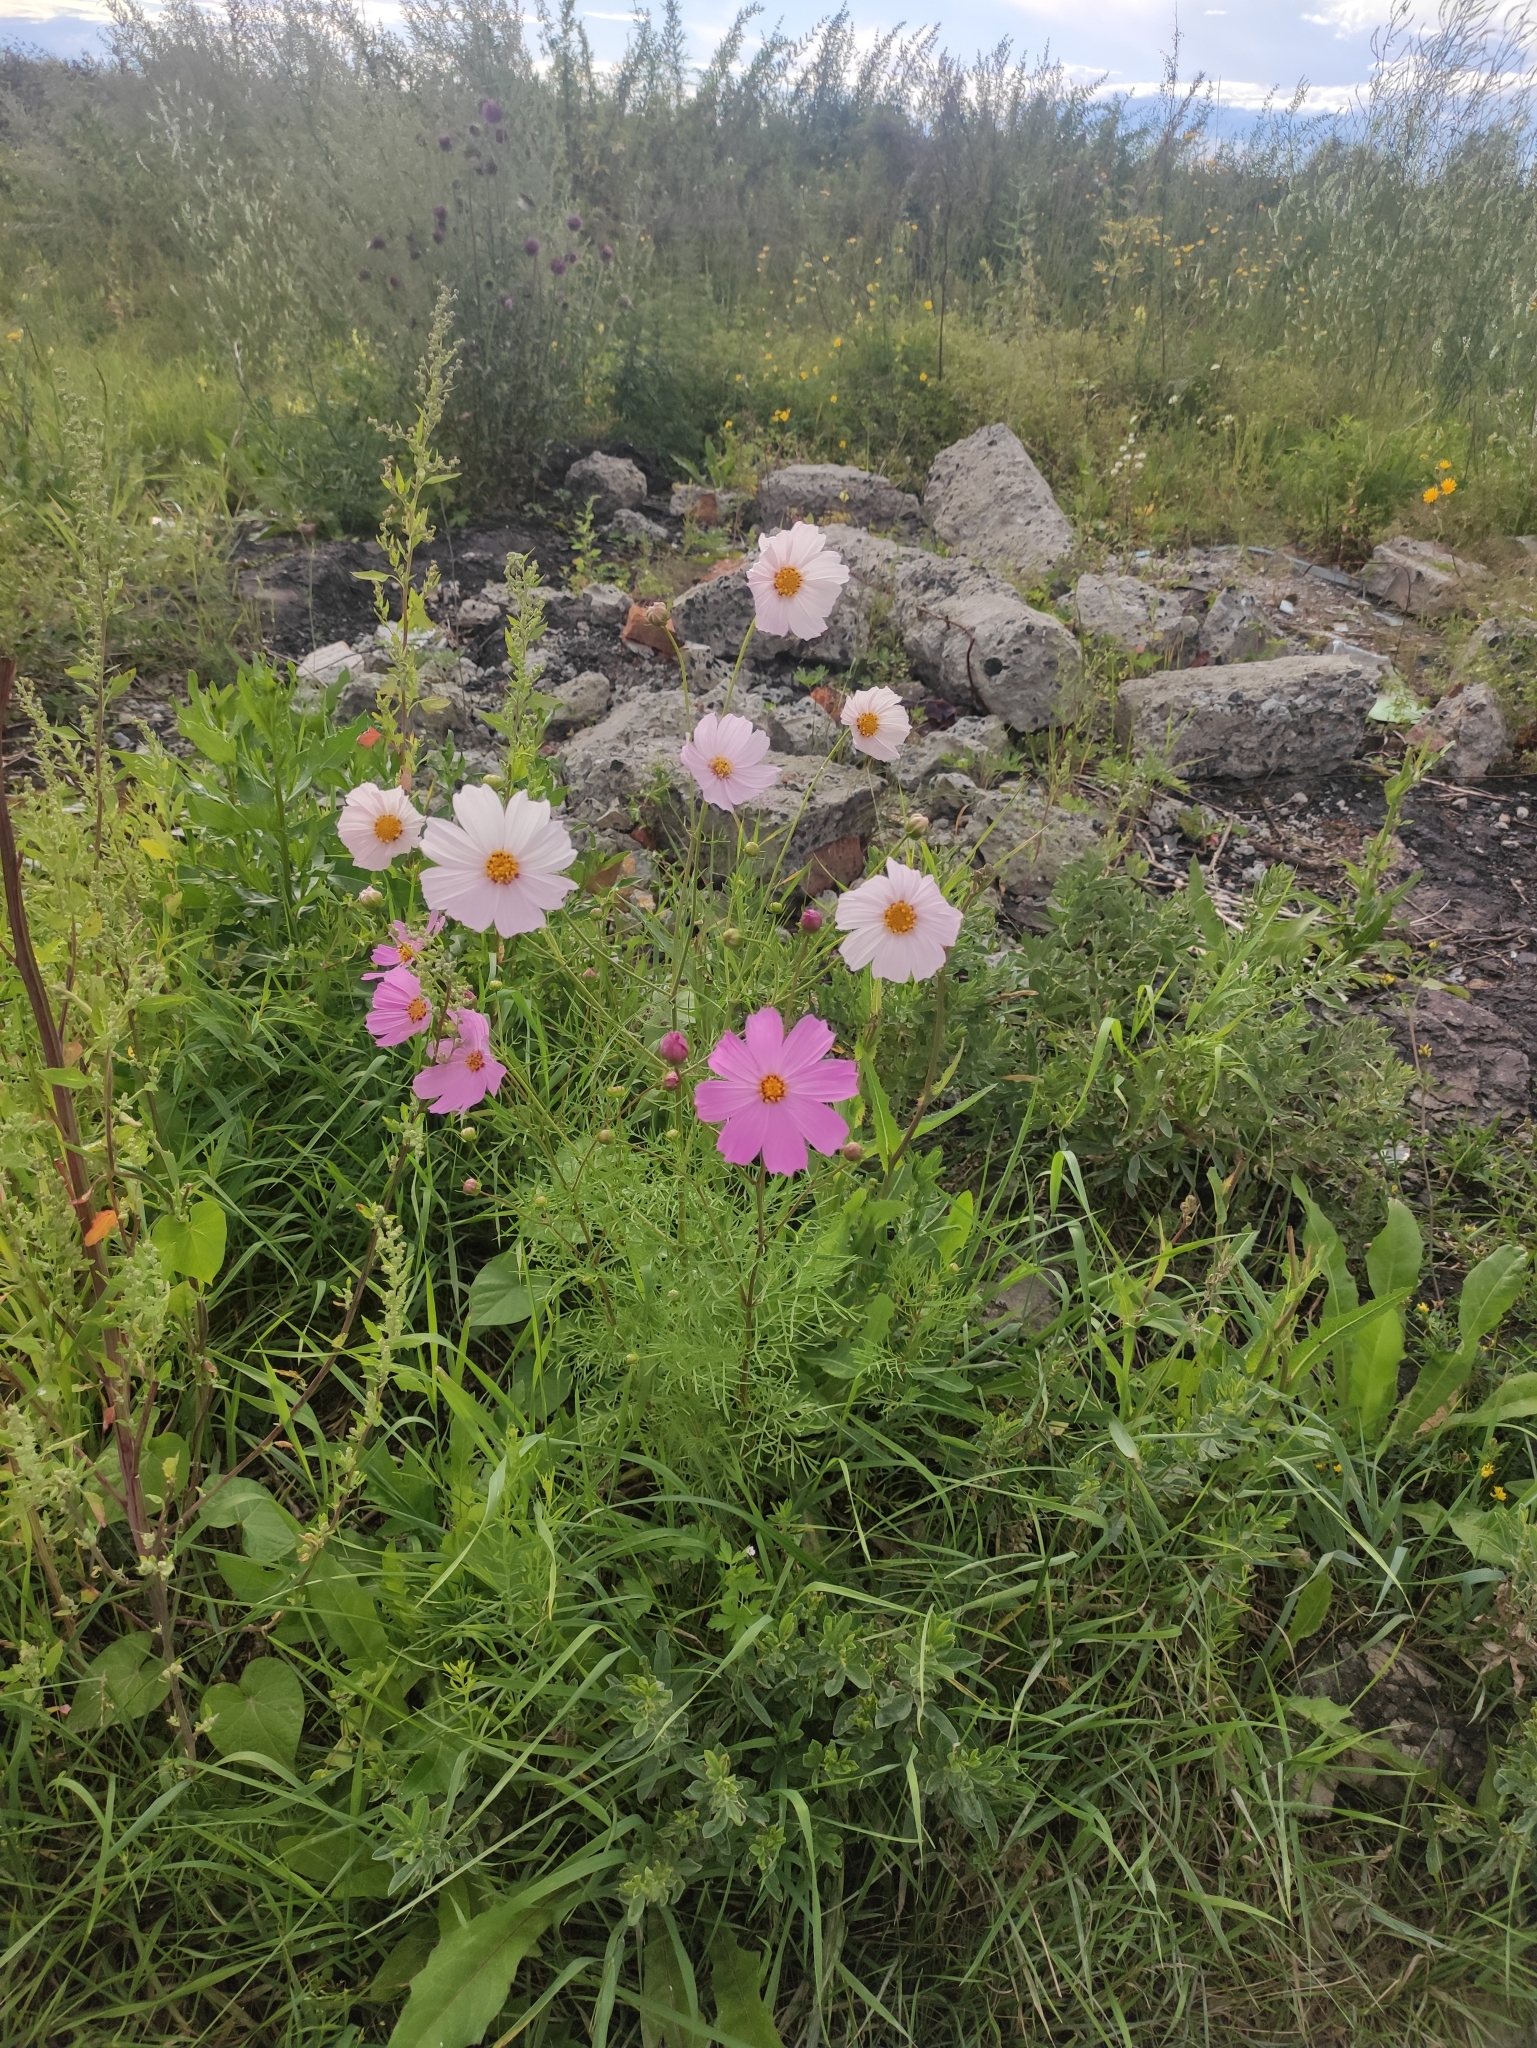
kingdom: Plantae
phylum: Tracheophyta
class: Magnoliopsida
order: Asterales
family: Asteraceae
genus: Cosmos
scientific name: Cosmos bipinnatus
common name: Garden cosmos
